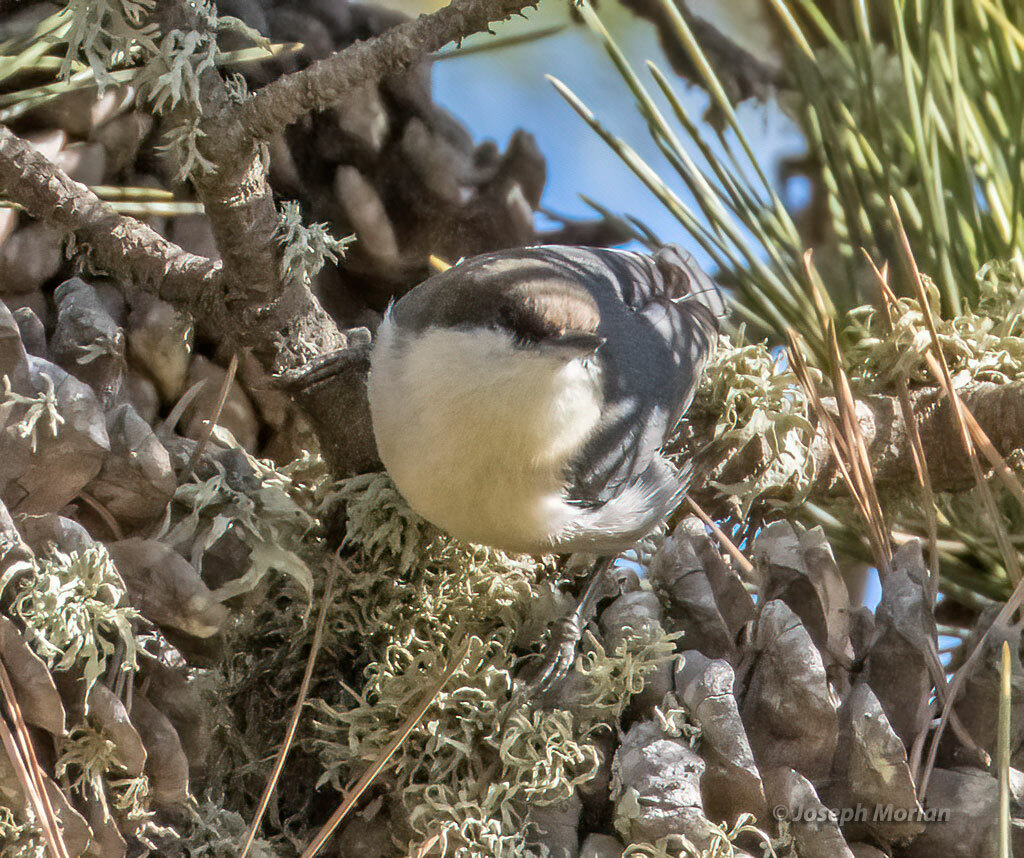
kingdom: Animalia
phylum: Chordata
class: Aves
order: Passeriformes
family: Sittidae
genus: Sitta
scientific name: Sitta pygmaea
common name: Pygmy nuthatch
